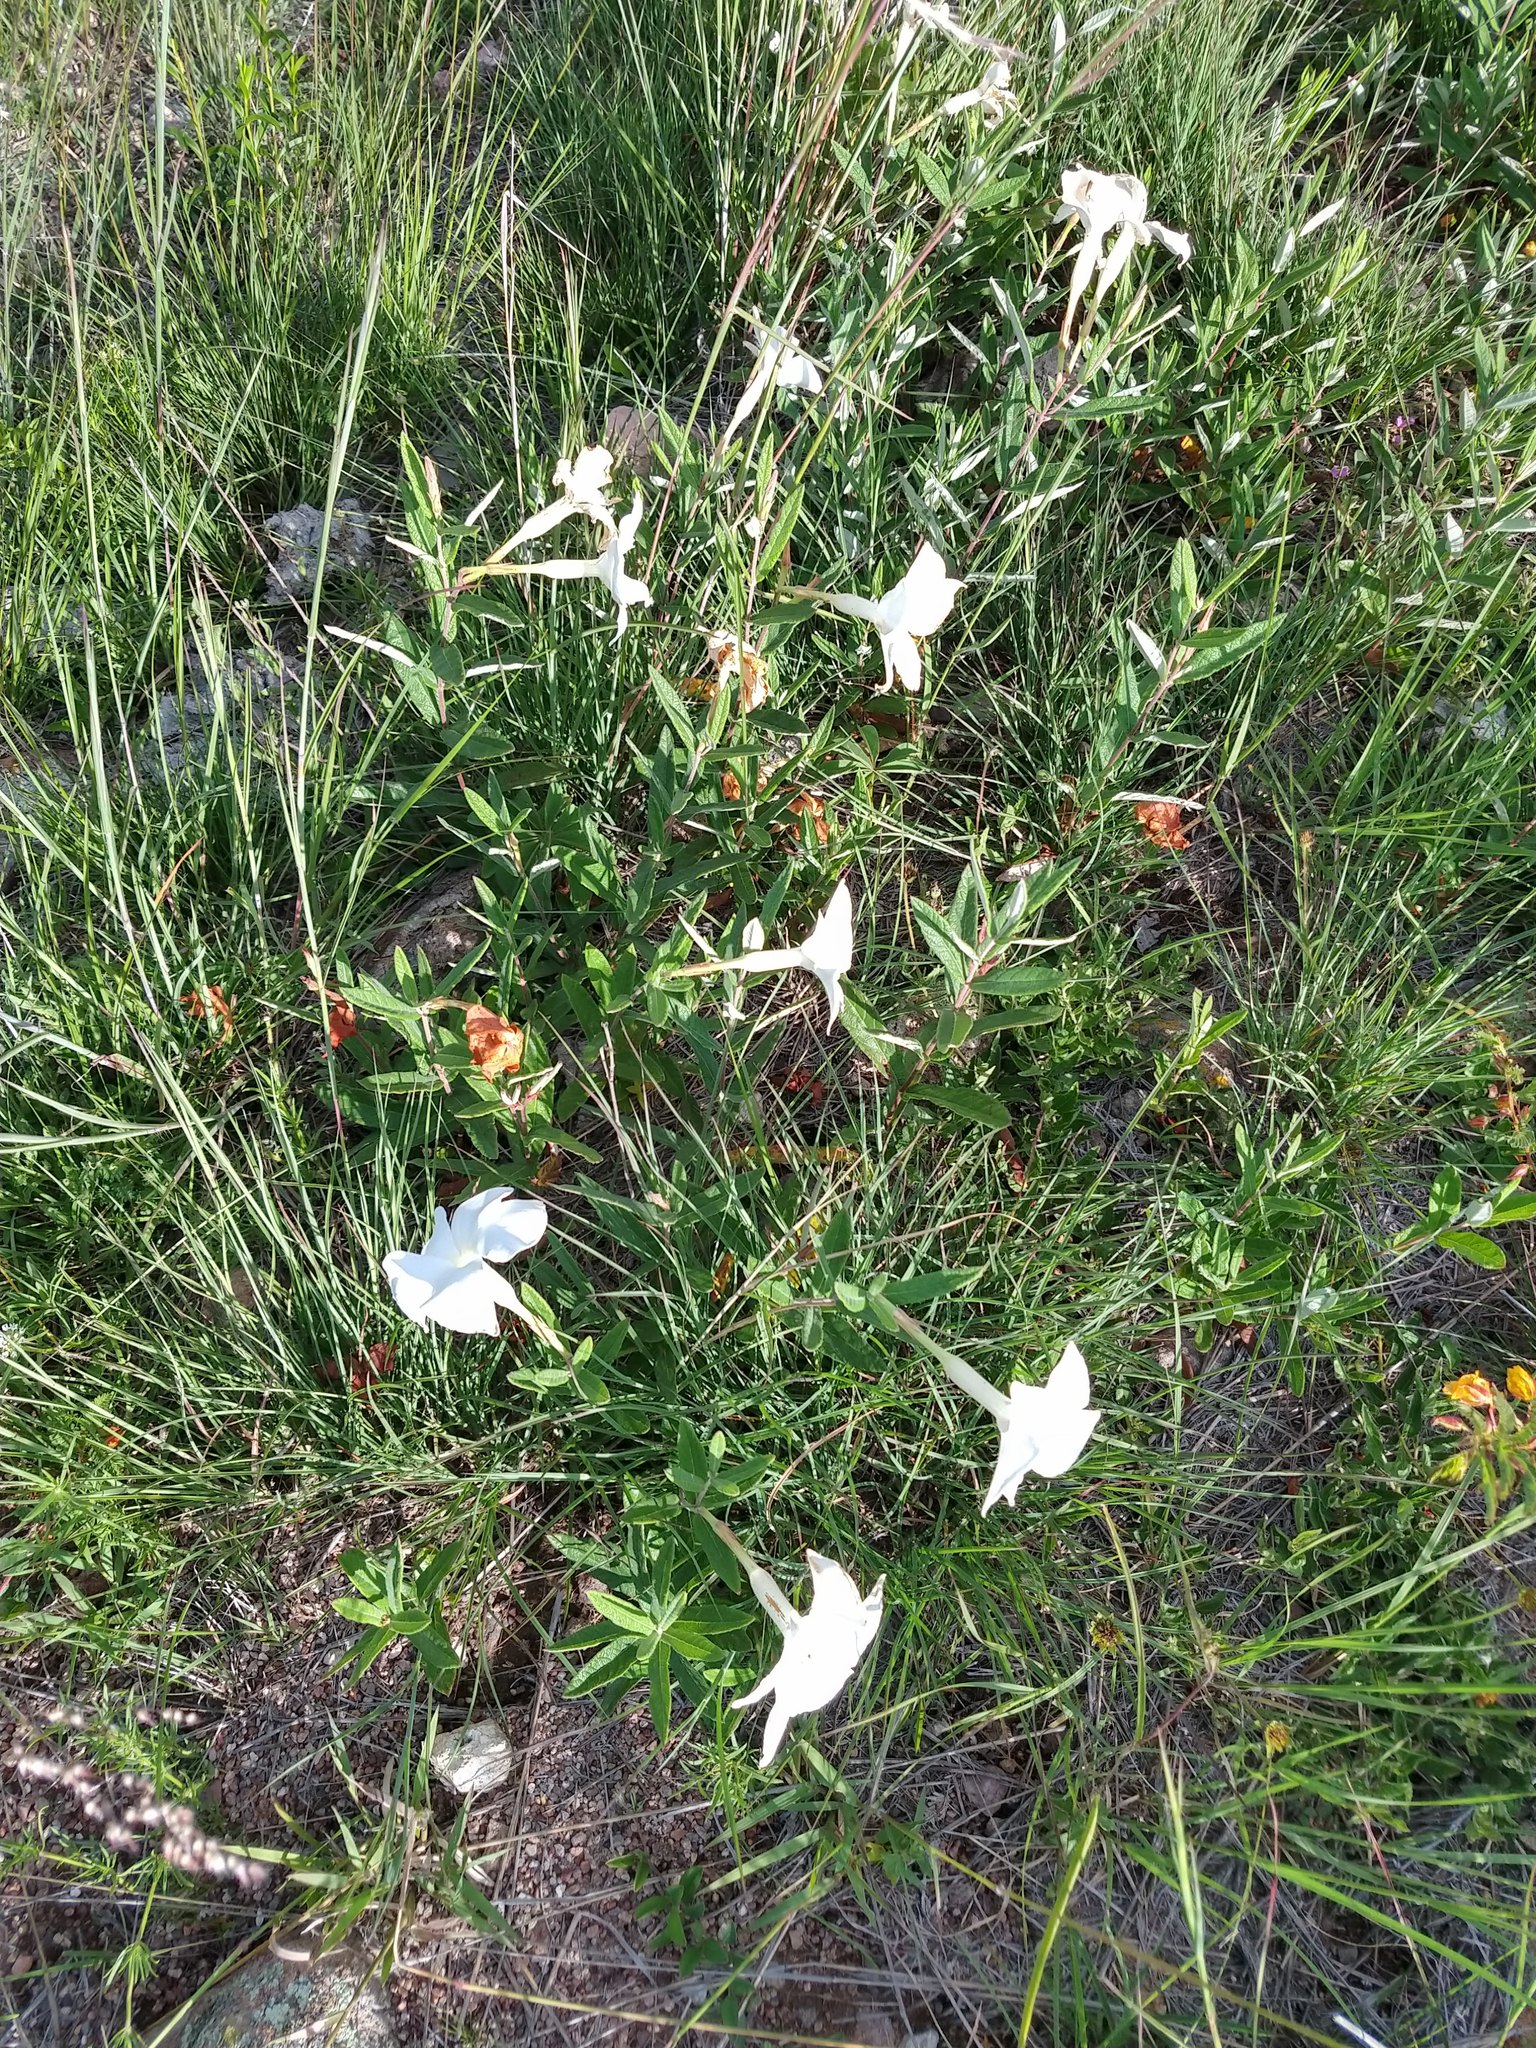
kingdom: Plantae
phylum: Tracheophyta
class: Magnoliopsida
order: Gentianales
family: Apocynaceae
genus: Mandevilla
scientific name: Mandevilla hypoleuca
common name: Davis mountain rocktrumpet
